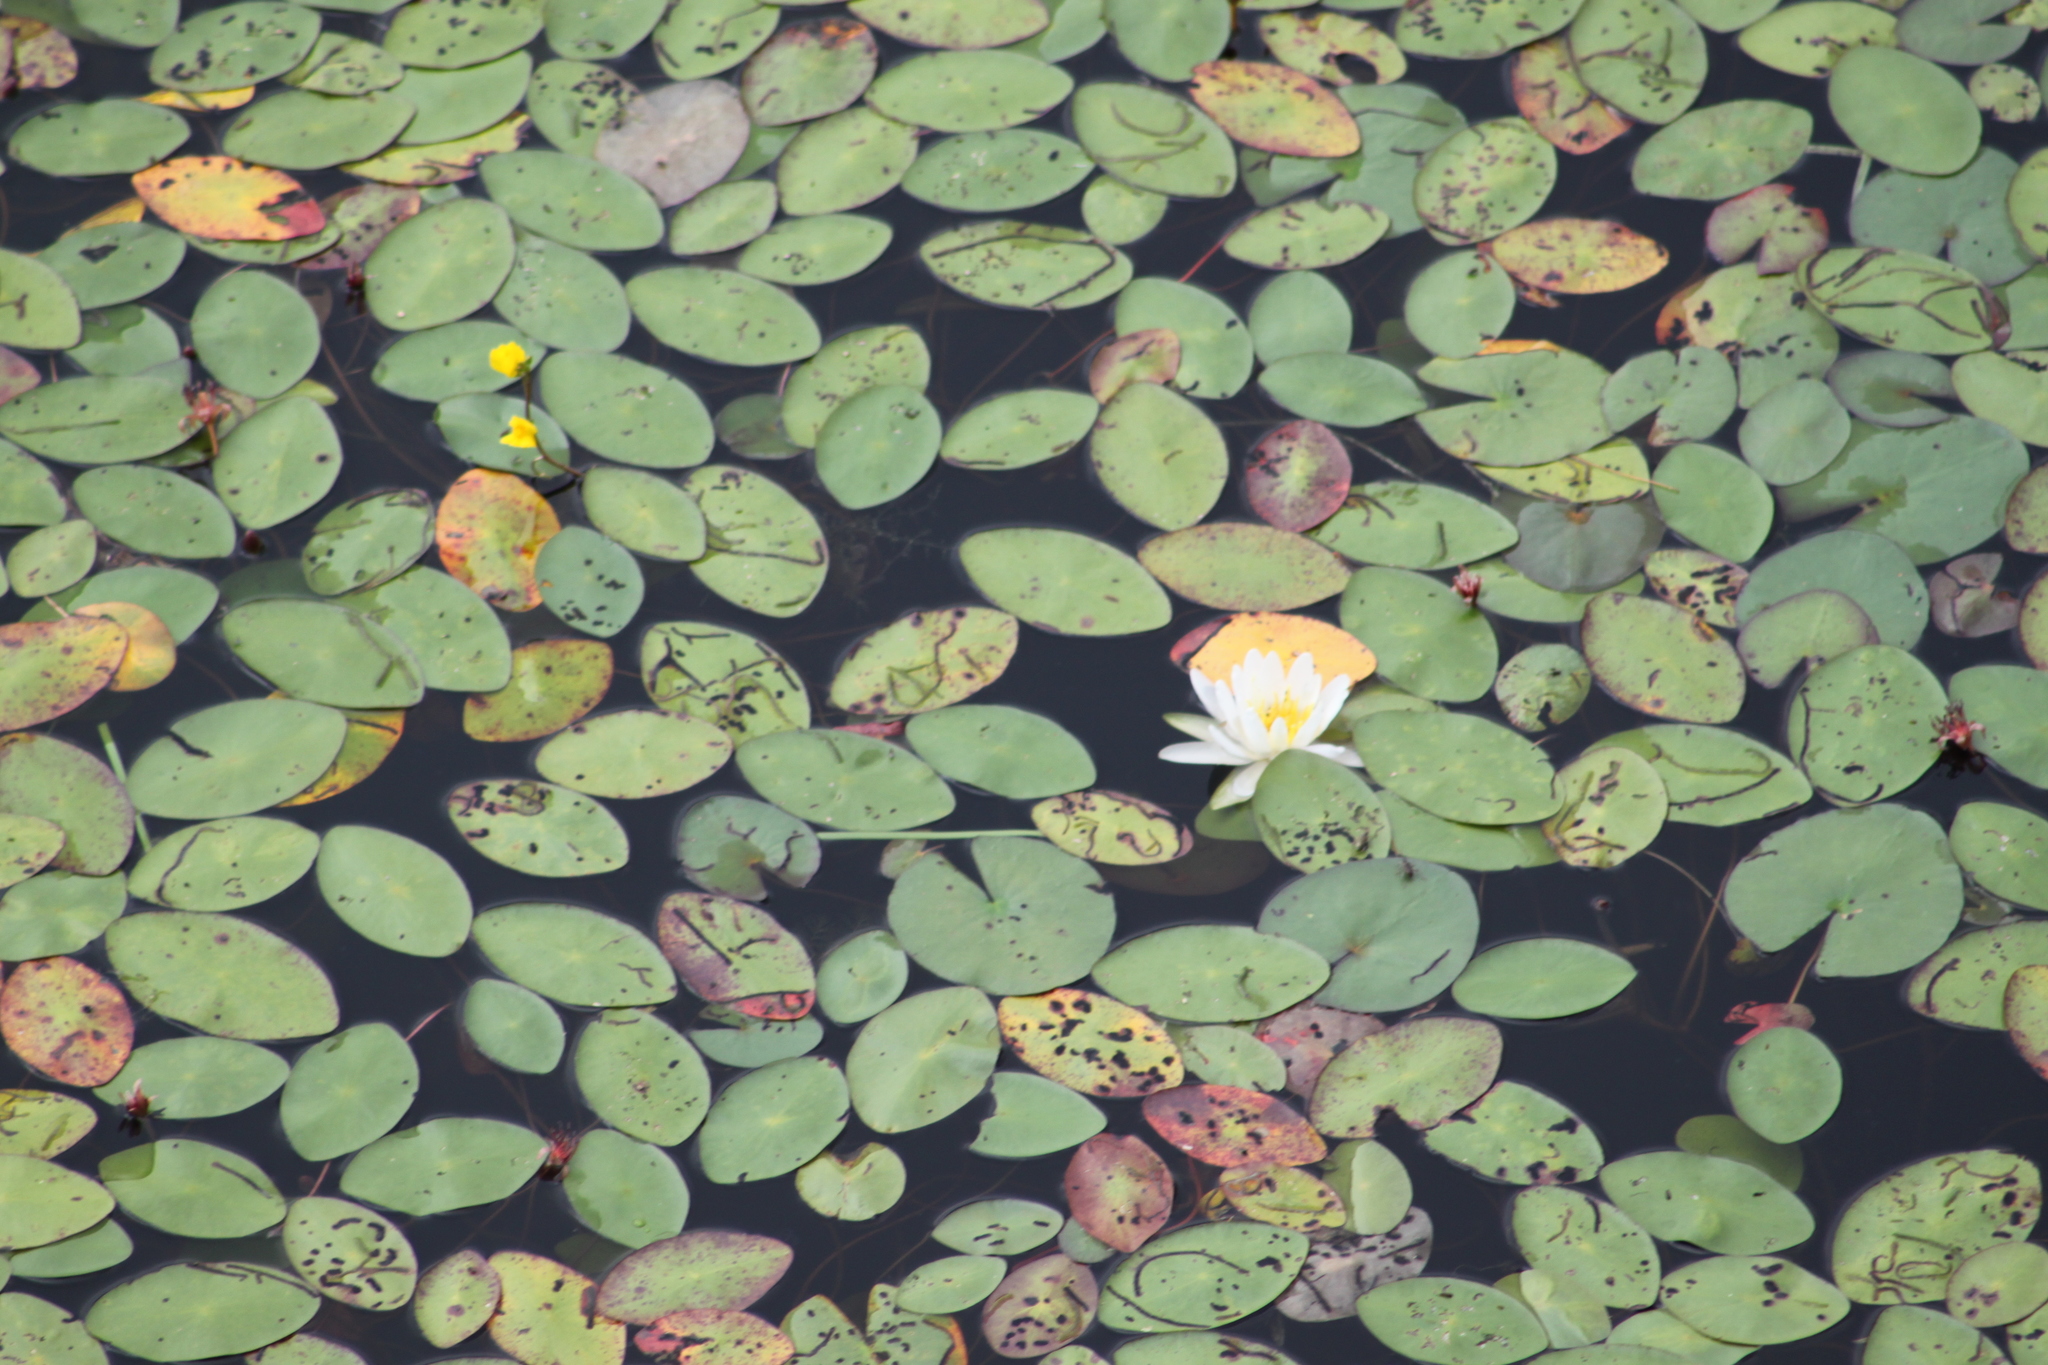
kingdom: Plantae
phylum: Tracheophyta
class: Magnoliopsida
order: Nymphaeales
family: Cabombaceae
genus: Brasenia
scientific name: Brasenia schreberi
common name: Water-shield
